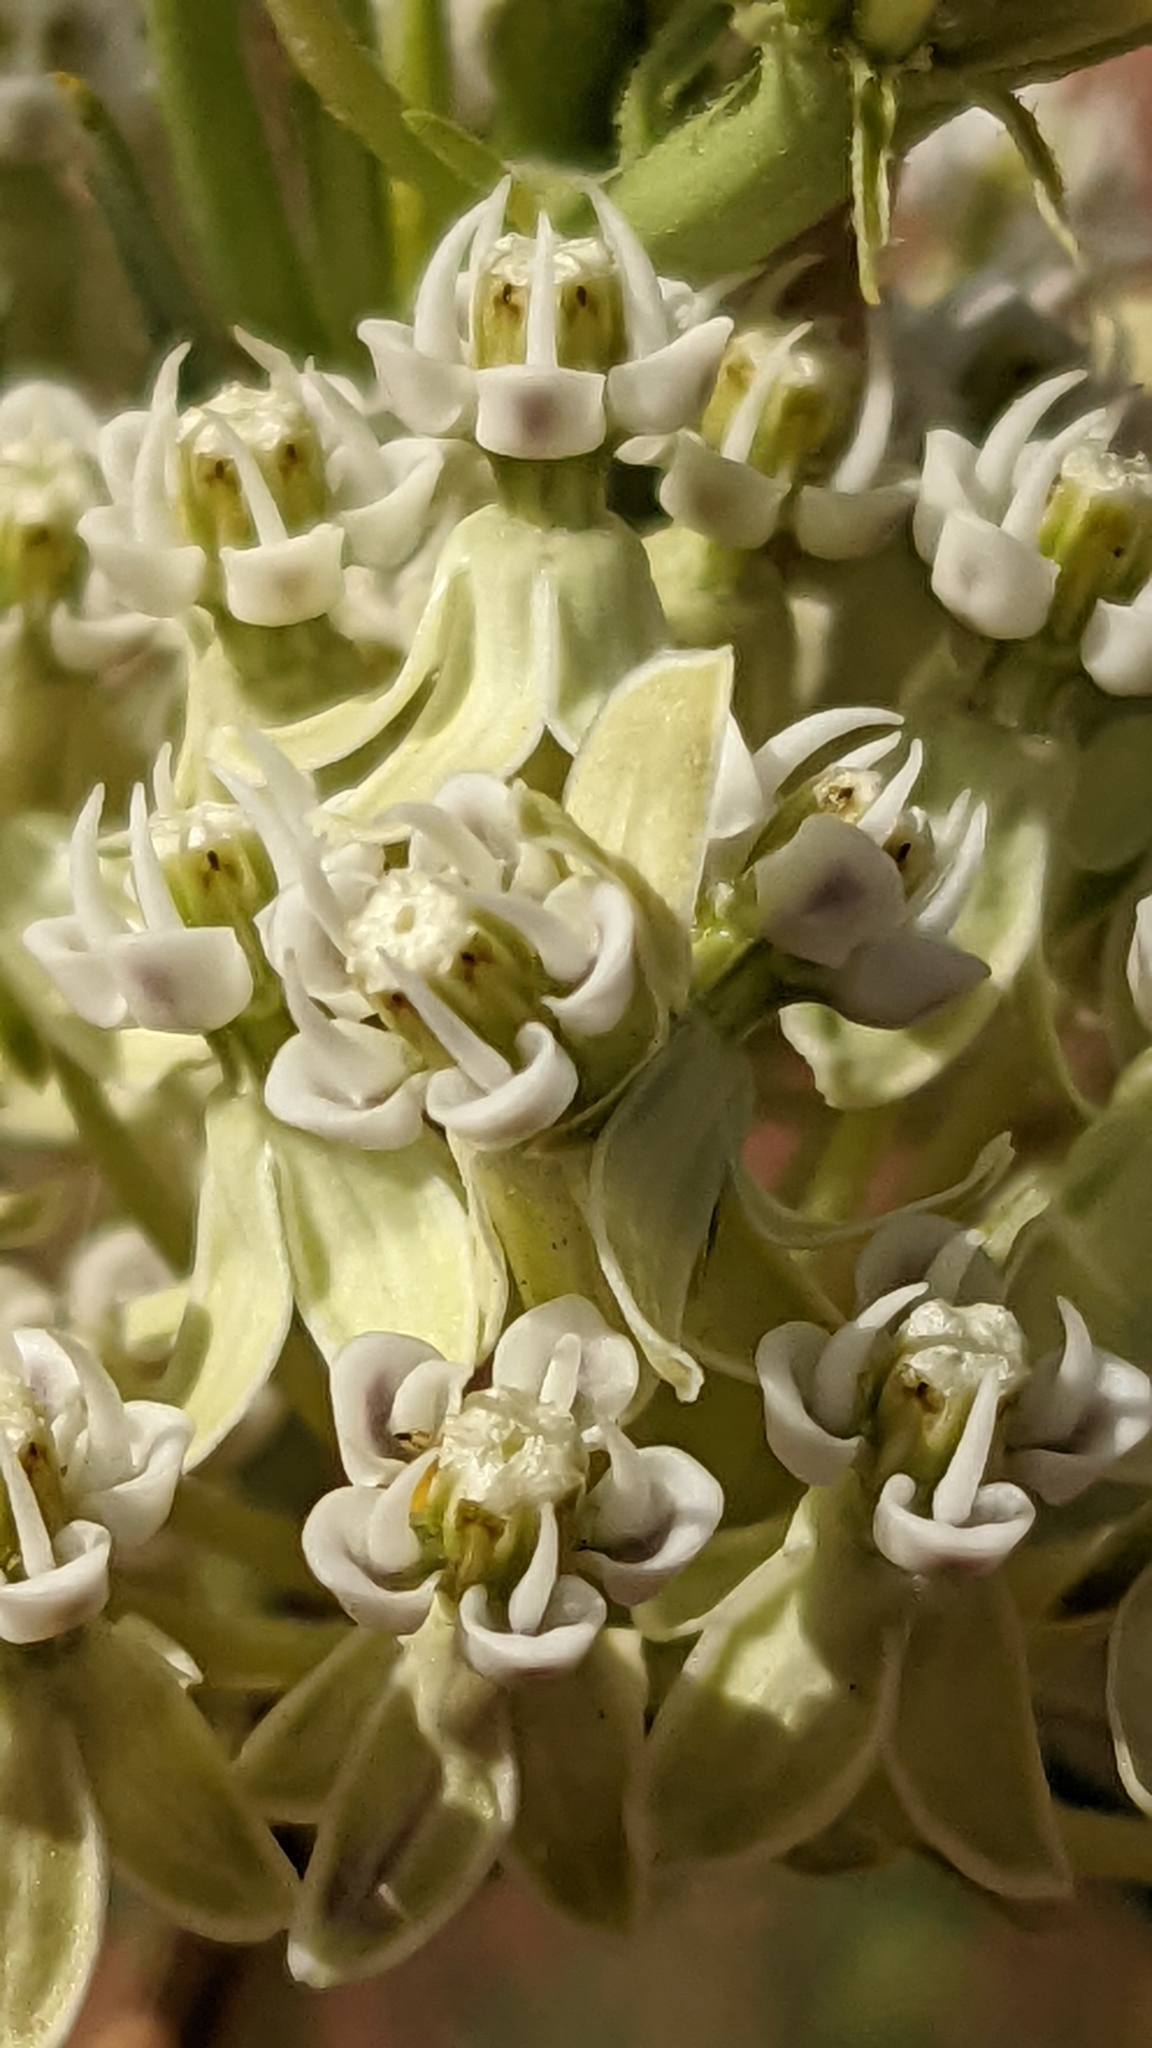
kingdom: Plantae
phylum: Tracheophyta
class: Magnoliopsida
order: Gentianales
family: Apocynaceae
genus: Asclepias
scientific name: Asclepias subverticillata
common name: Horsetail milkweed
